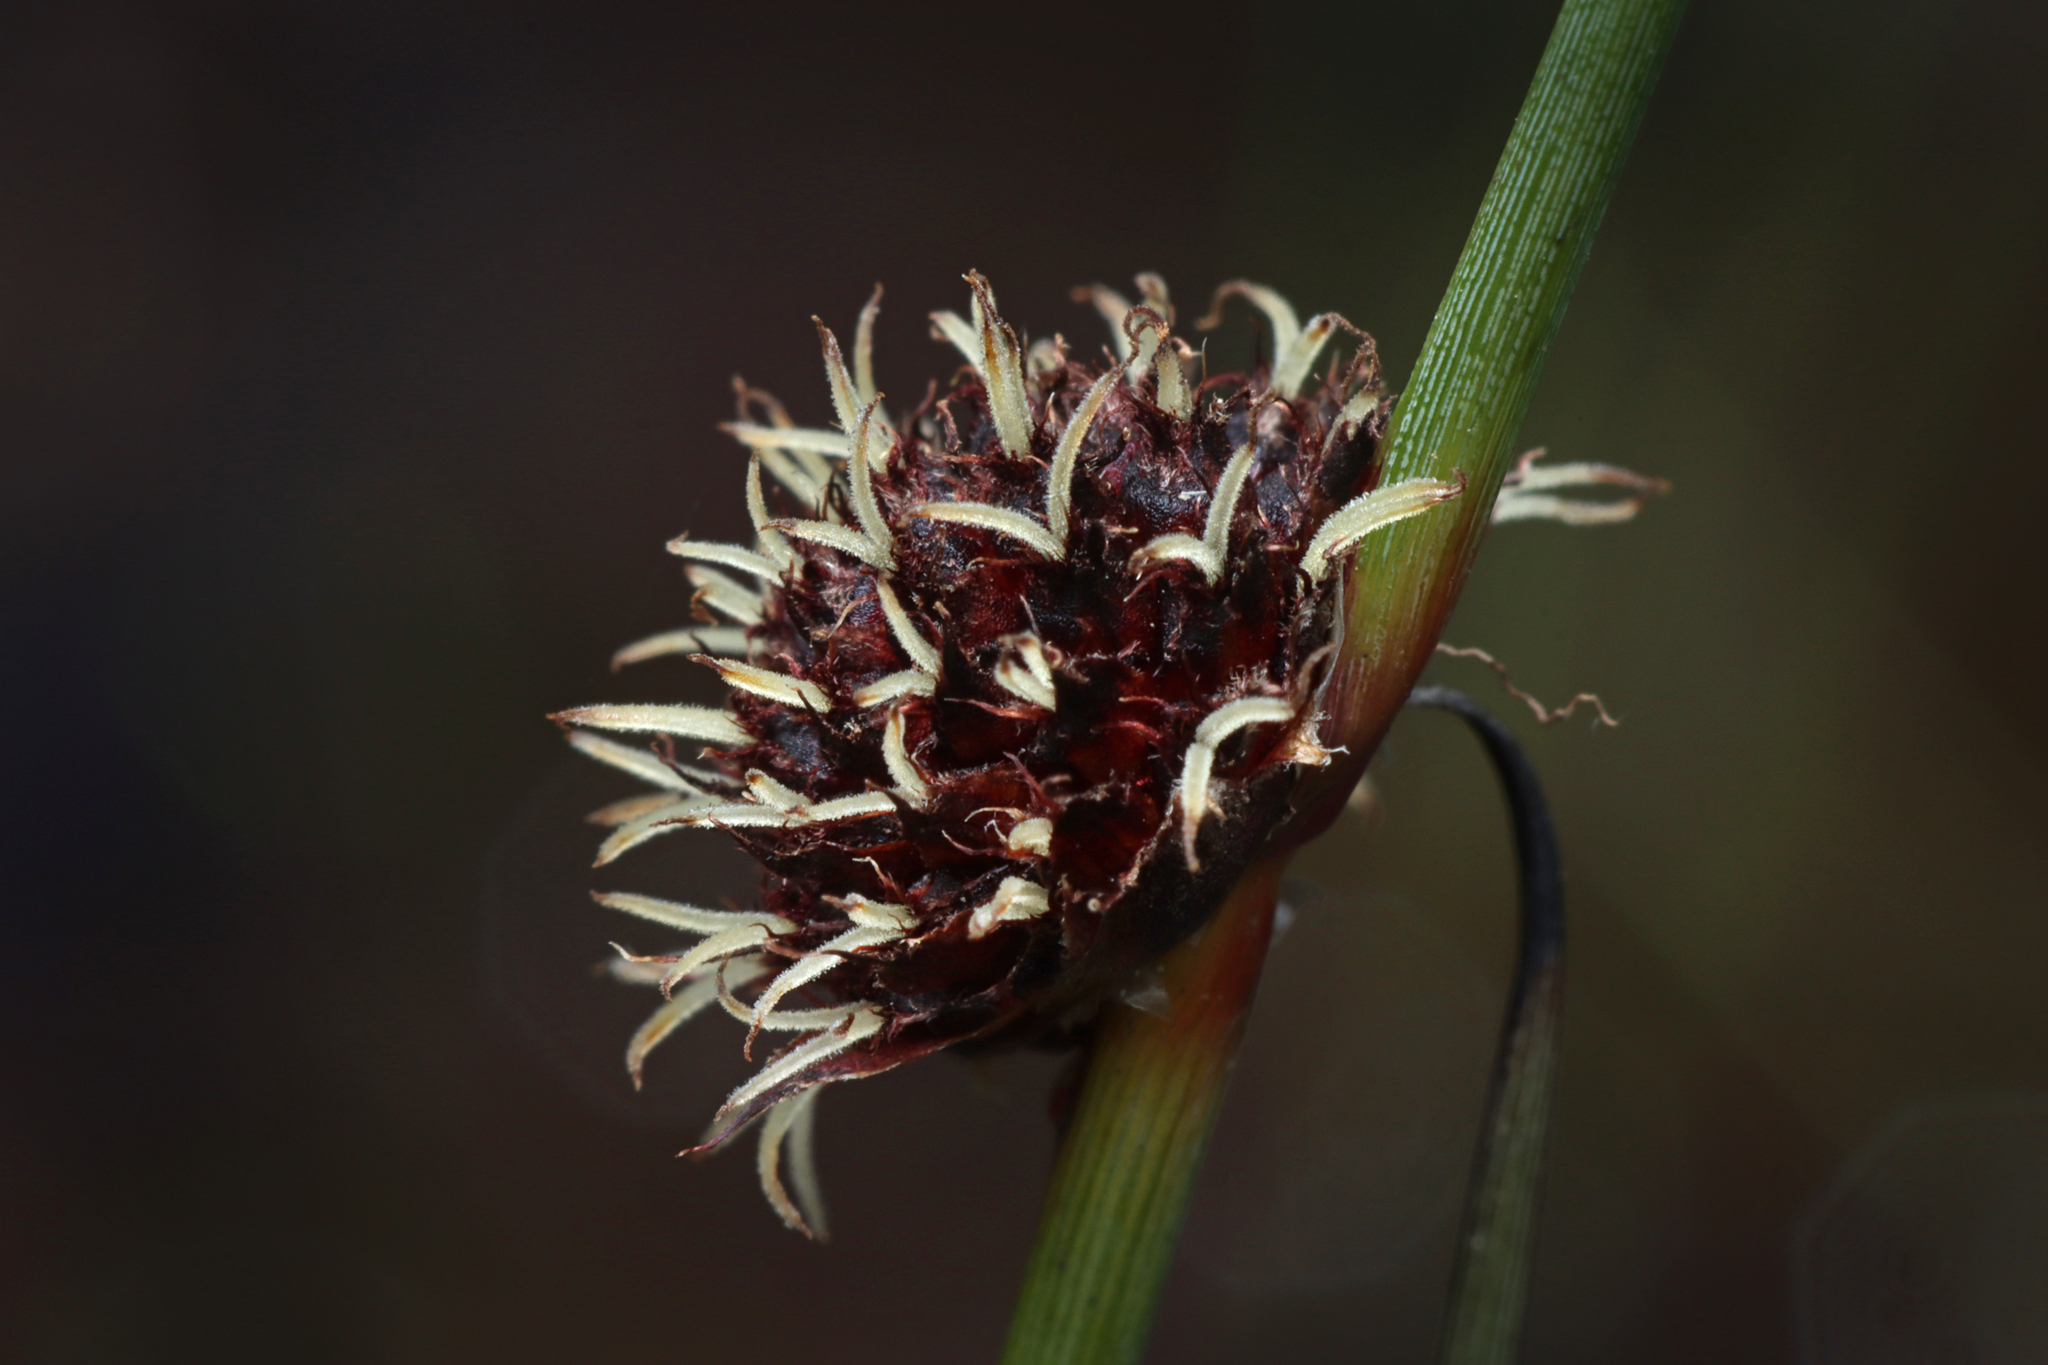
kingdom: Plantae
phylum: Tracheophyta
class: Liliopsida
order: Poales
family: Cyperaceae
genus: Chorizandra
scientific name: Chorizandra enodis
